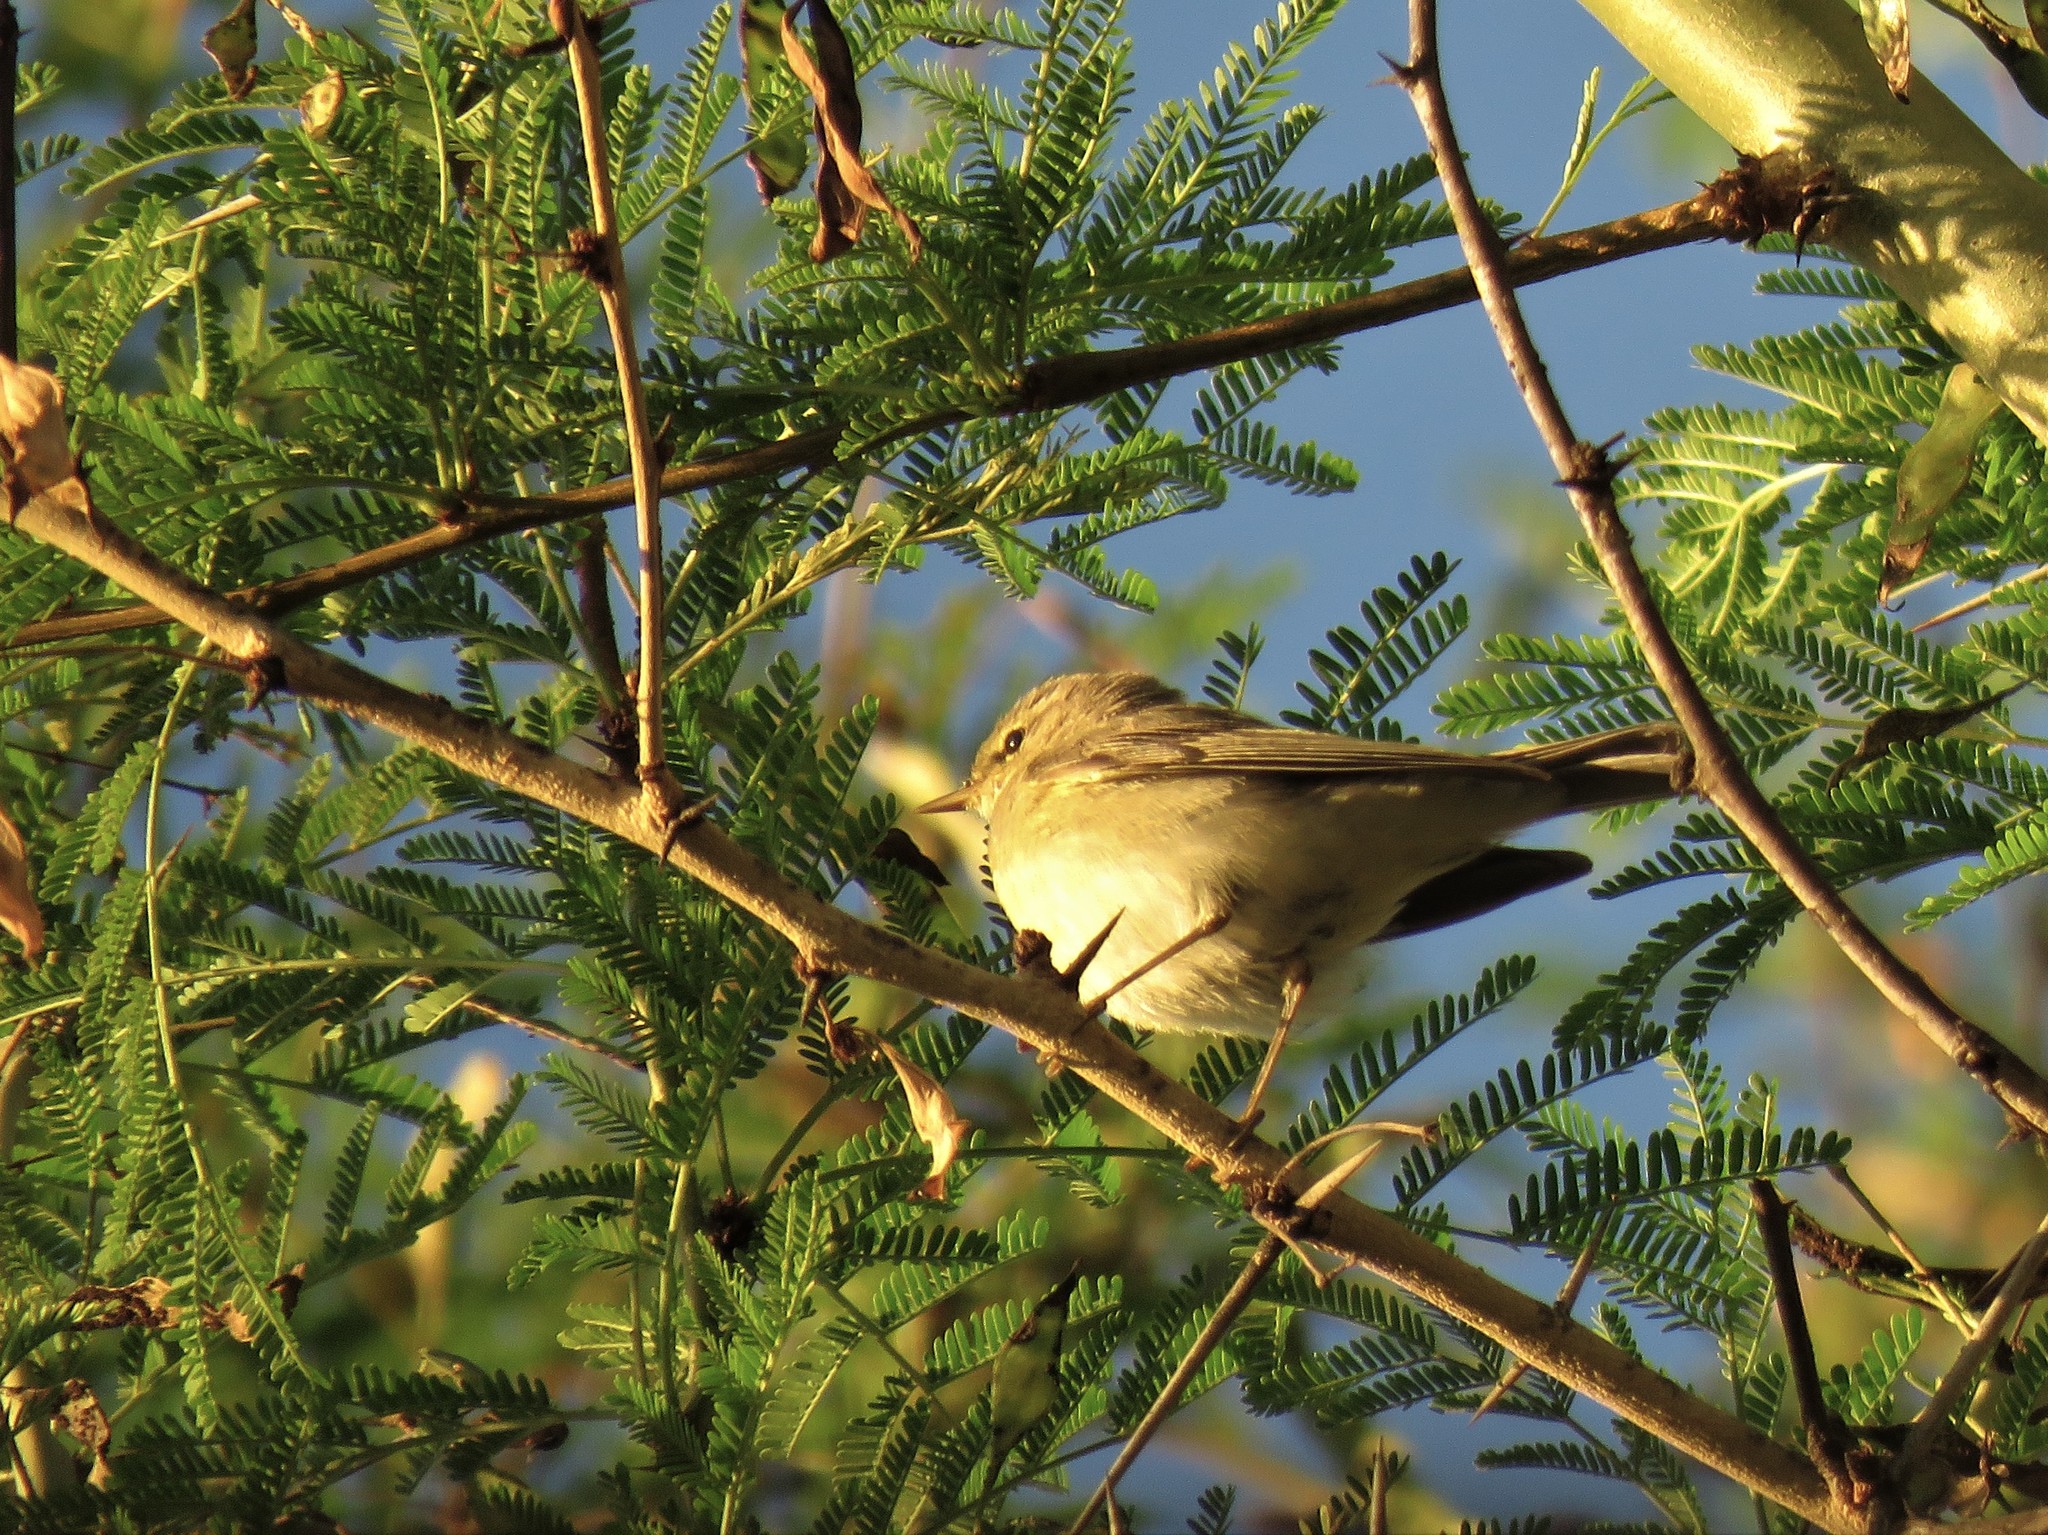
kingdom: Animalia
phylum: Chordata
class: Aves
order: Passeriformes
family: Phylloscopidae
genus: Phylloscopus
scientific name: Phylloscopus trochilus
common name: Willow warbler
